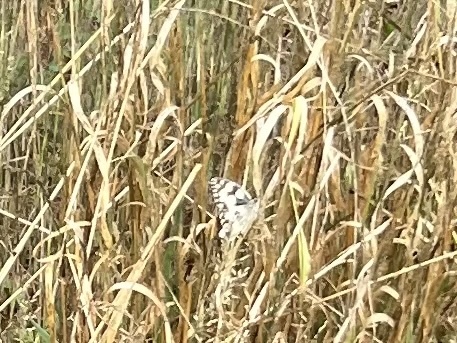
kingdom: Animalia
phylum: Arthropoda
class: Insecta
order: Lepidoptera
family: Nymphalidae
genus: Melanargia
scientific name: Melanargia galathea
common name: Marbled white
